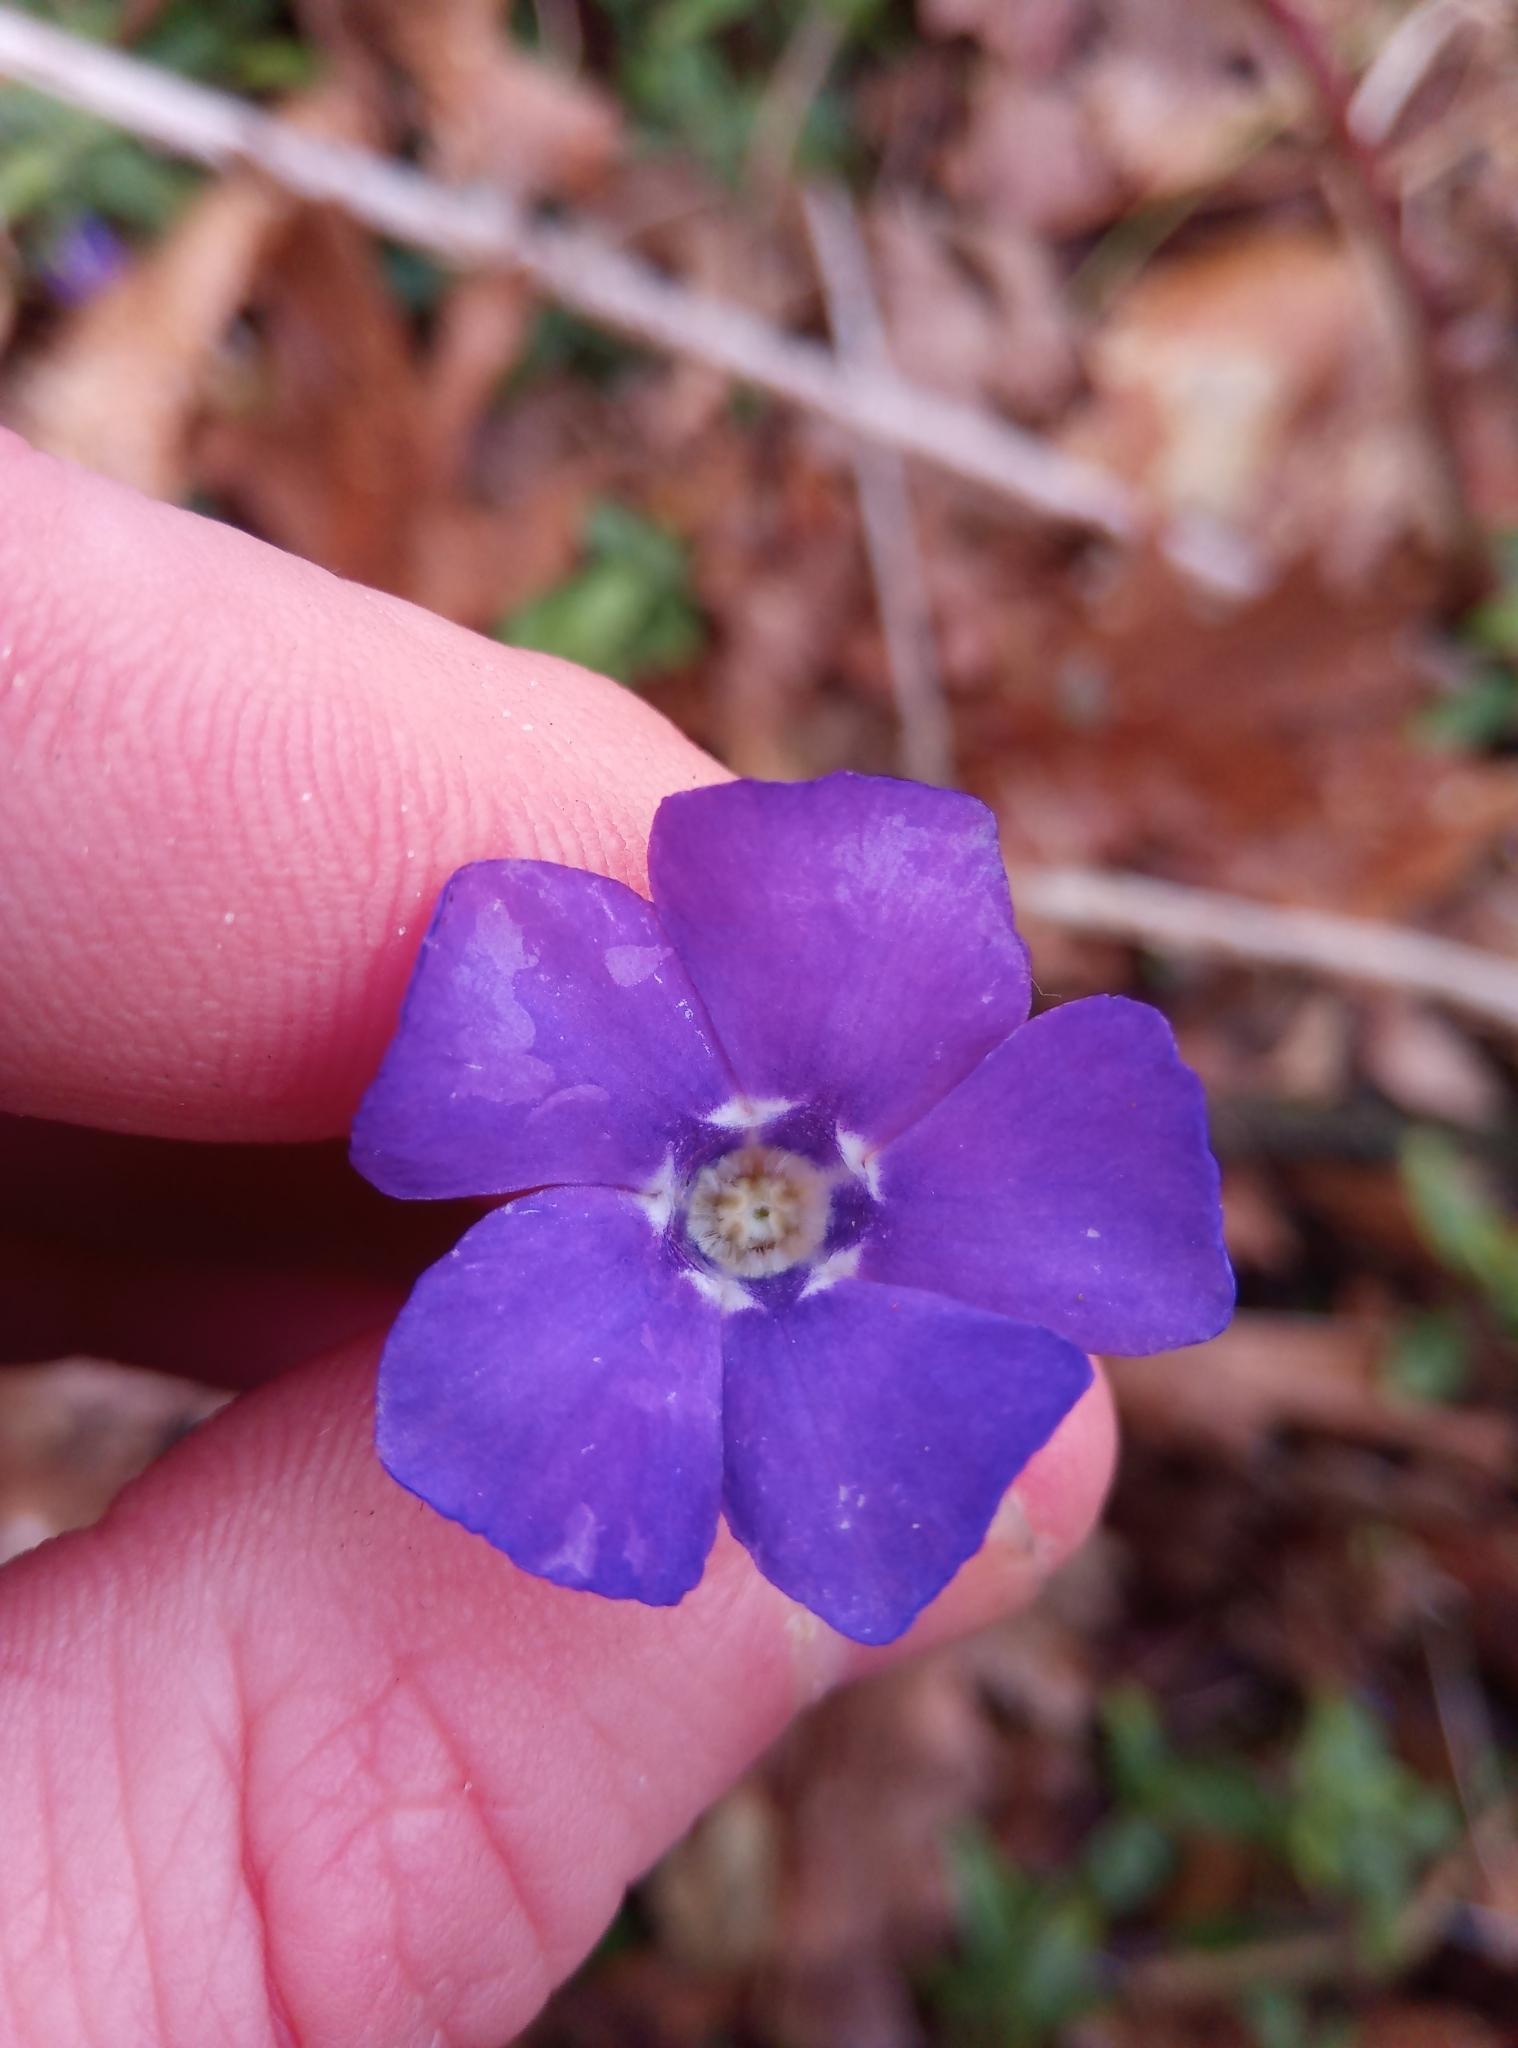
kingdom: Plantae
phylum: Tracheophyta
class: Magnoliopsida
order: Gentianales
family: Apocynaceae
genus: Vinca
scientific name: Vinca minor
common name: Lesser periwinkle
